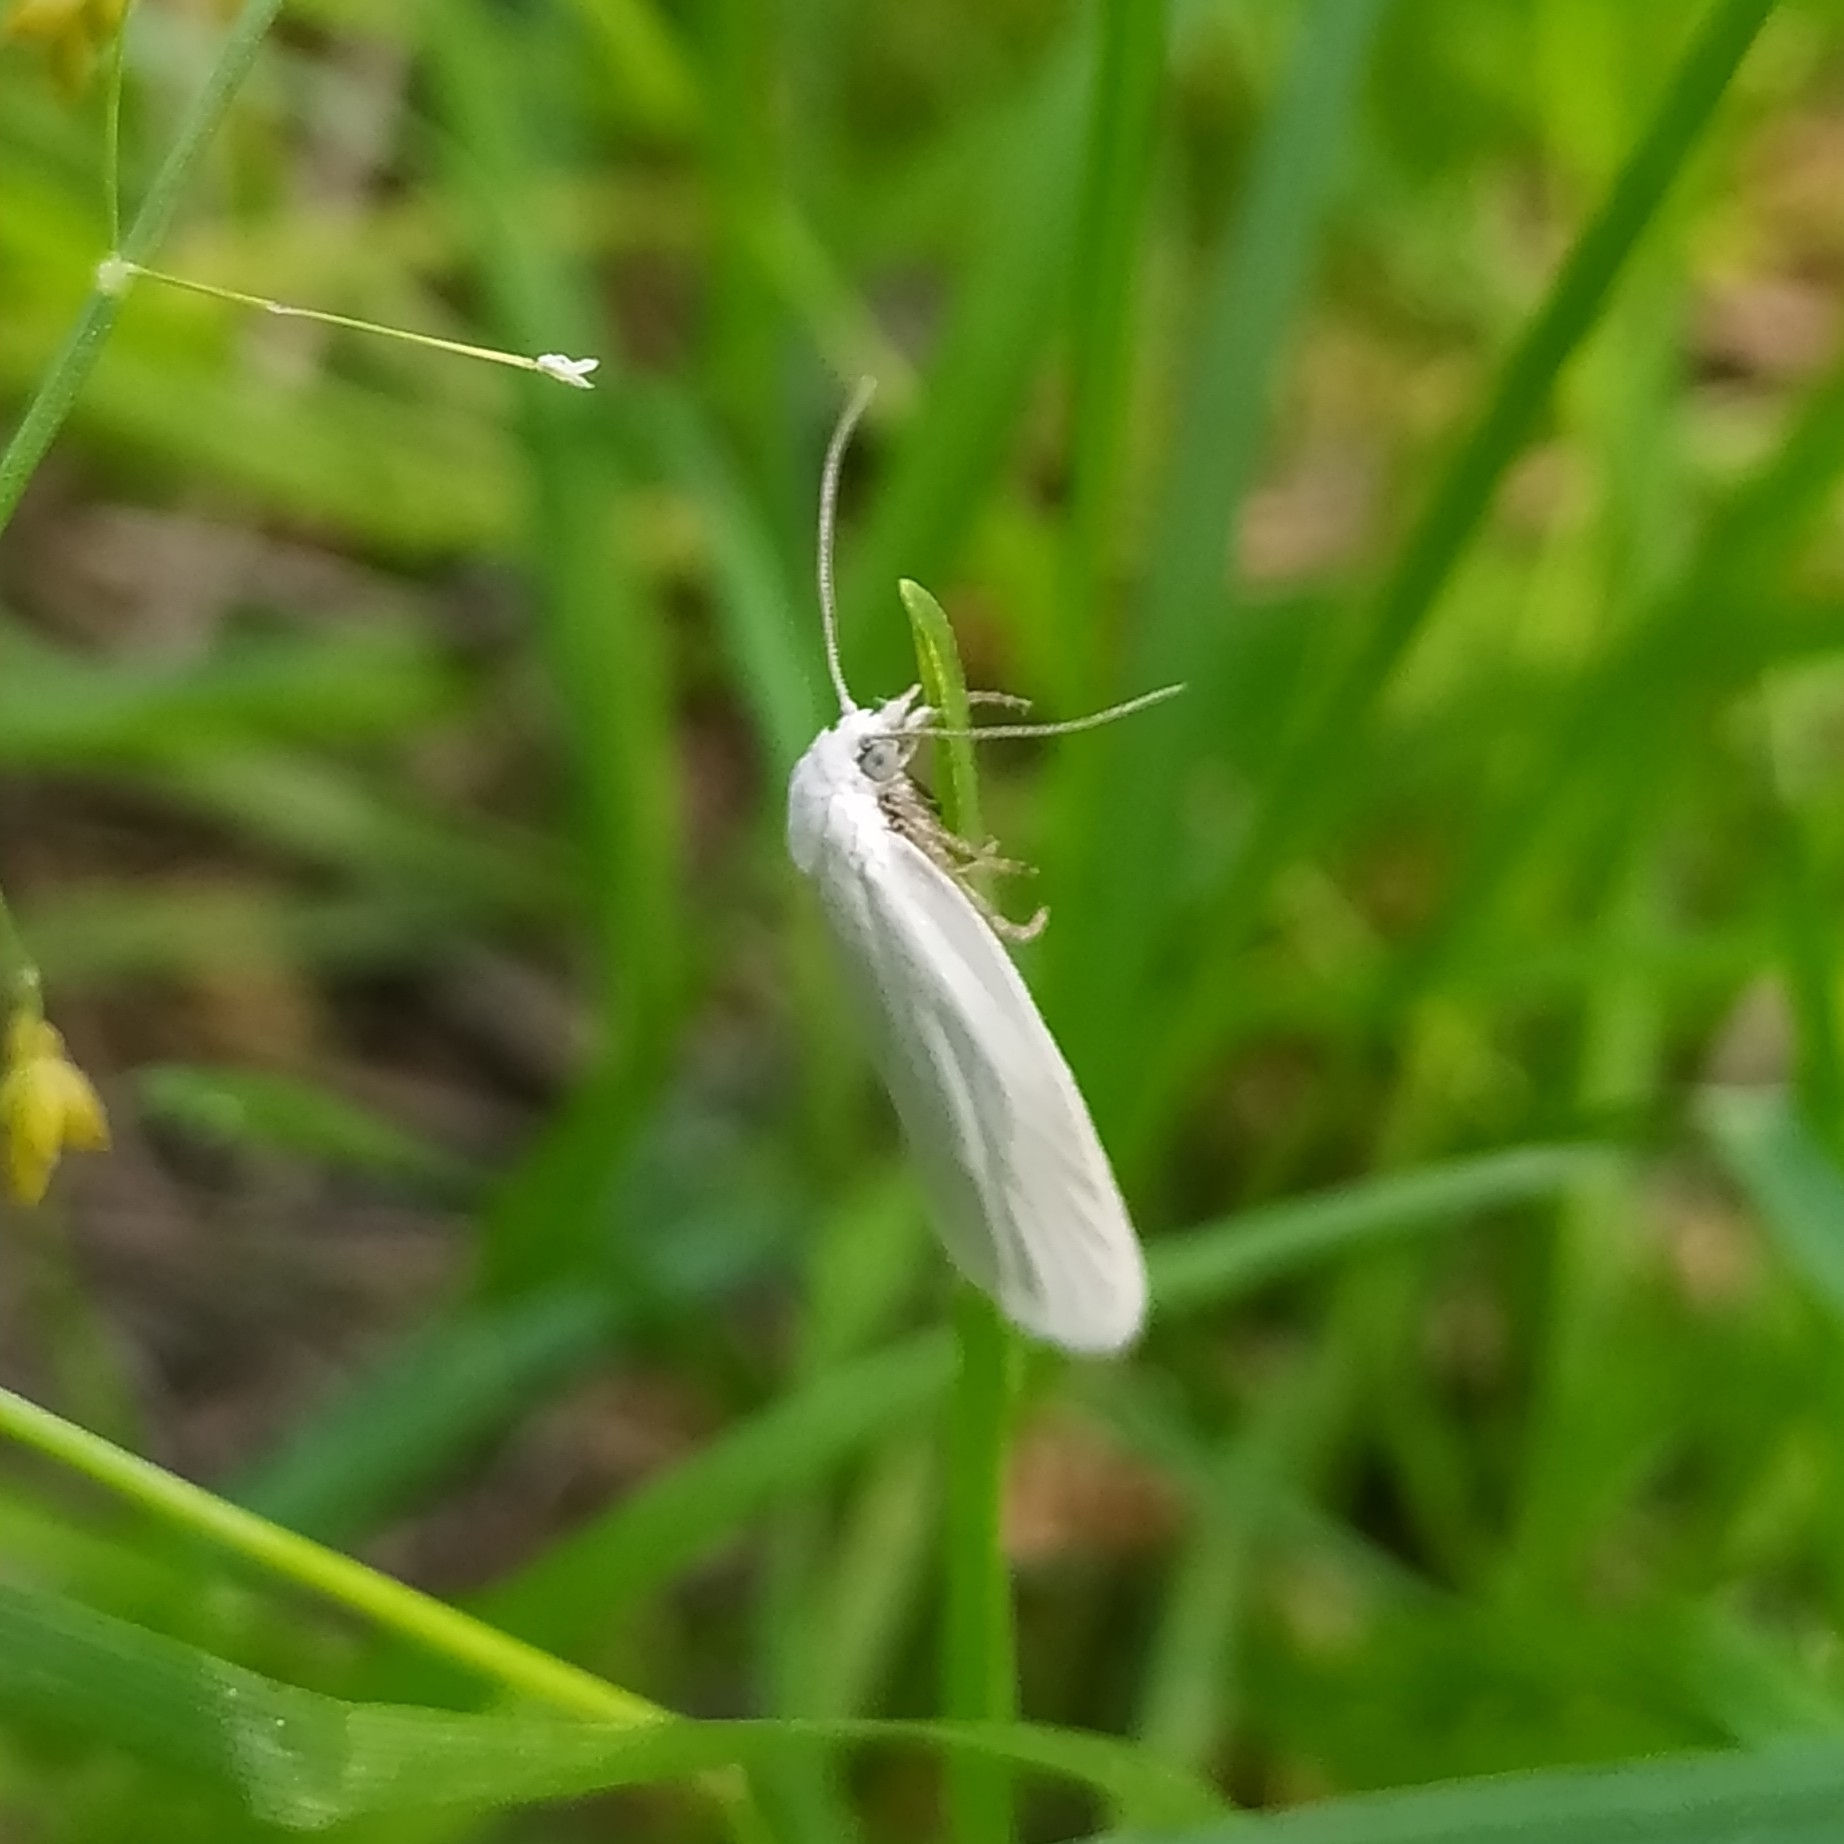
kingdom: Animalia
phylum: Arthropoda
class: Insecta
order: Lepidoptera
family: Tortricidae
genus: Eana
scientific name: Eana argentana
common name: Silver shade
